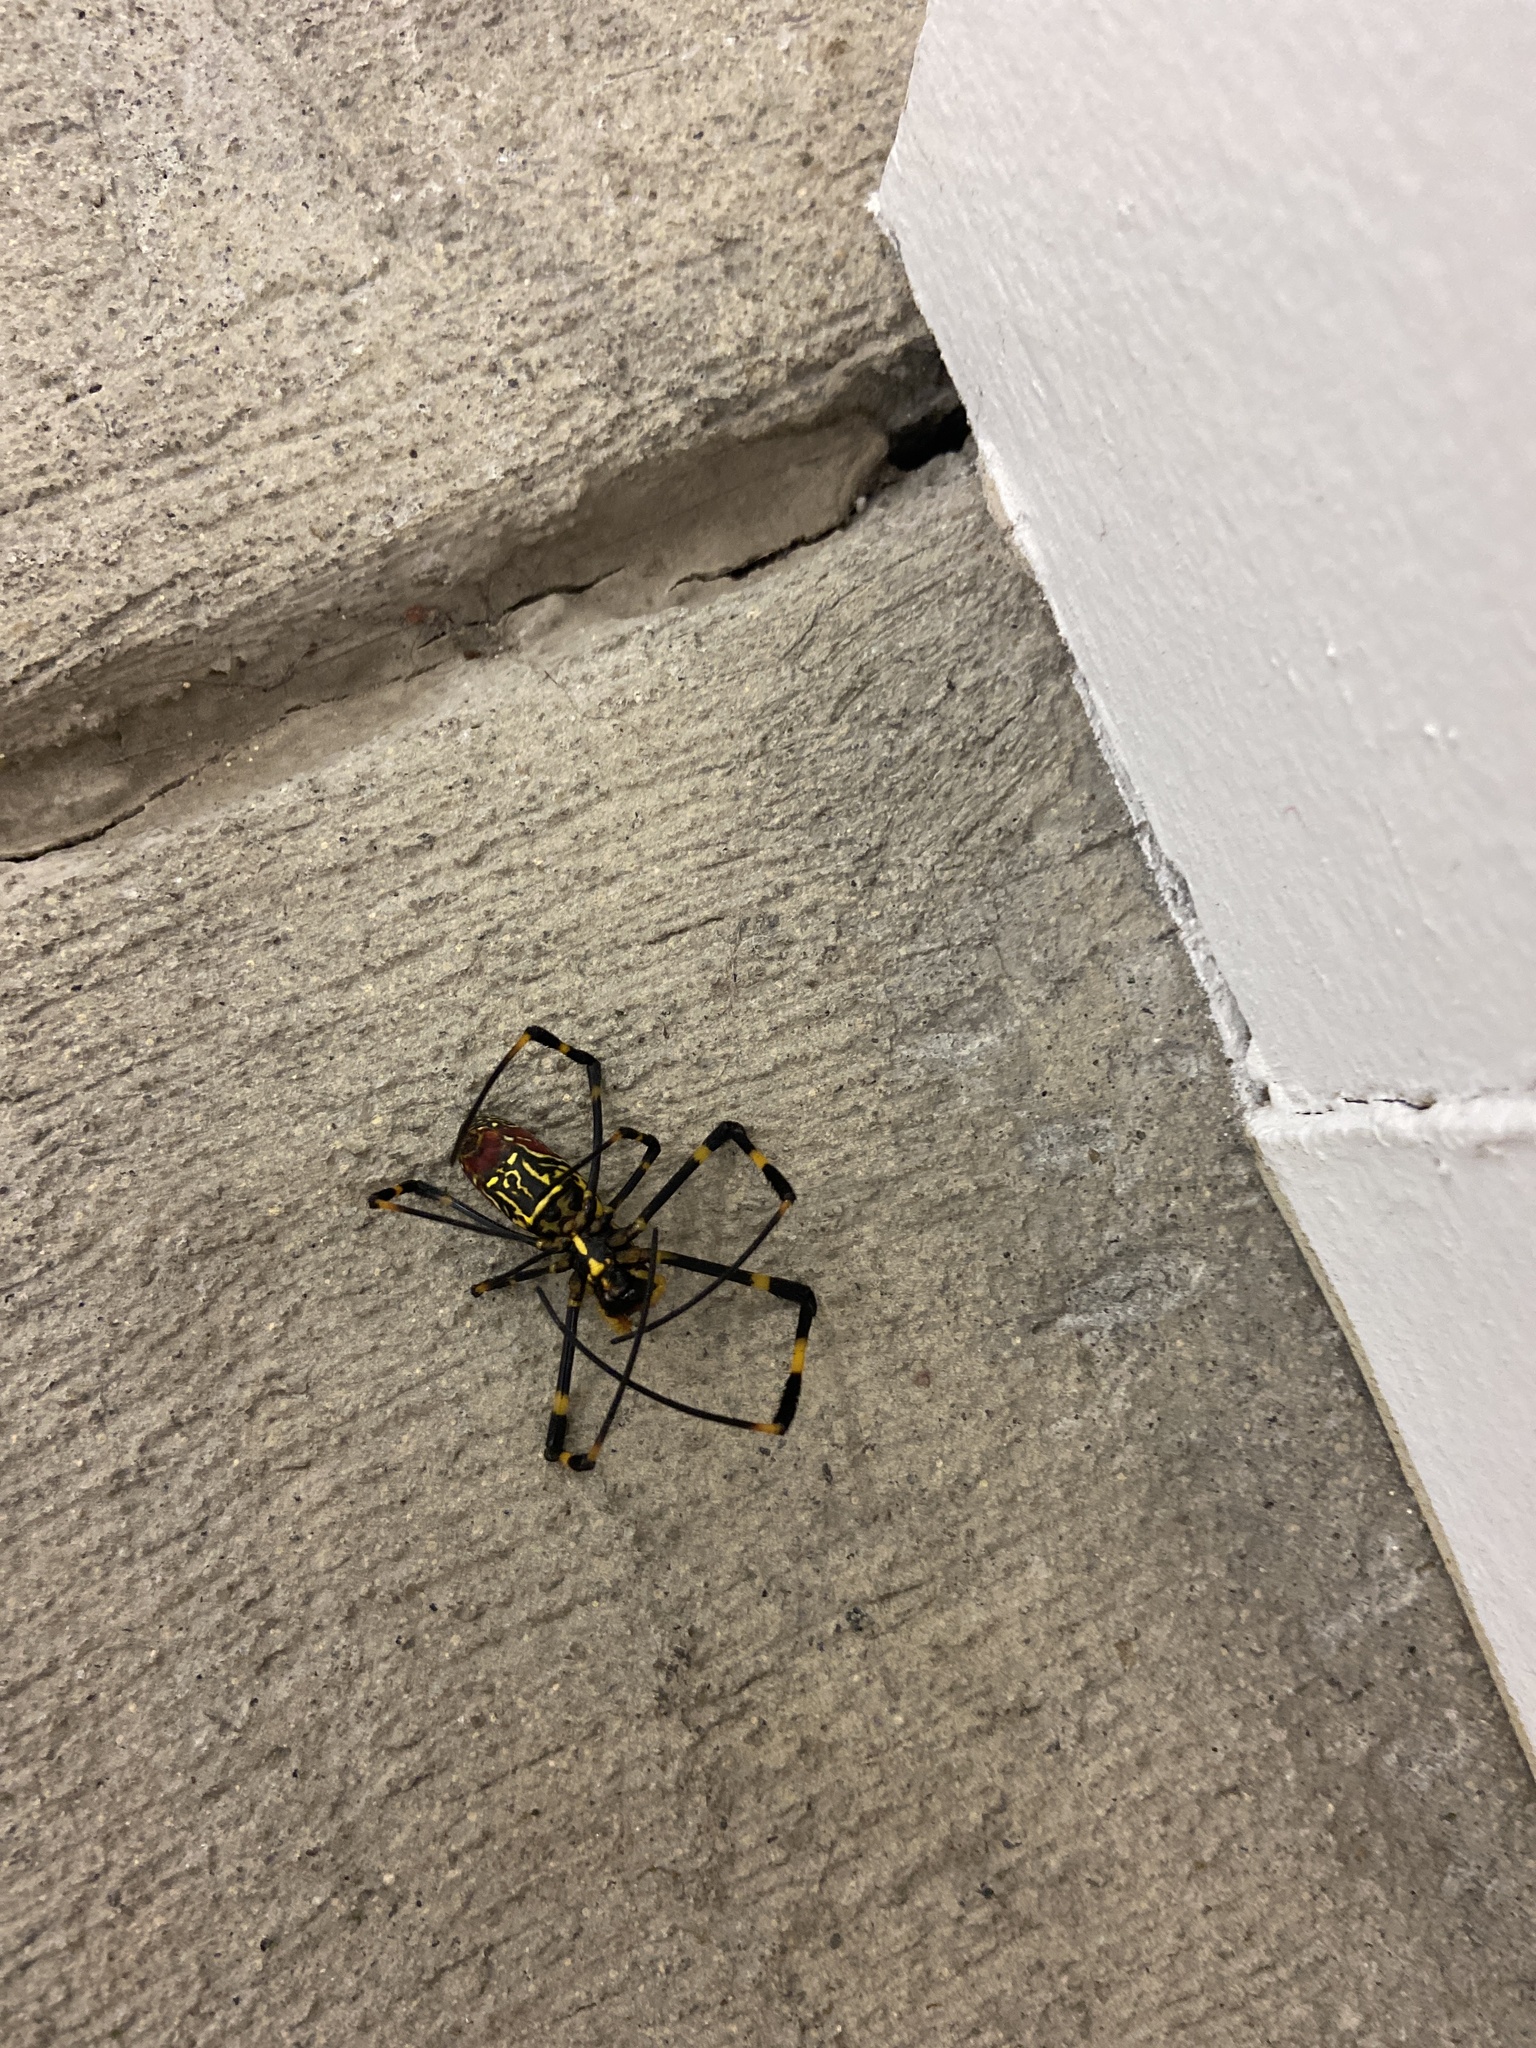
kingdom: Animalia
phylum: Arthropoda
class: Arachnida
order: Araneae
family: Araneidae
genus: Trichonephila
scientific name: Trichonephila clavata
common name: Jorō spider
